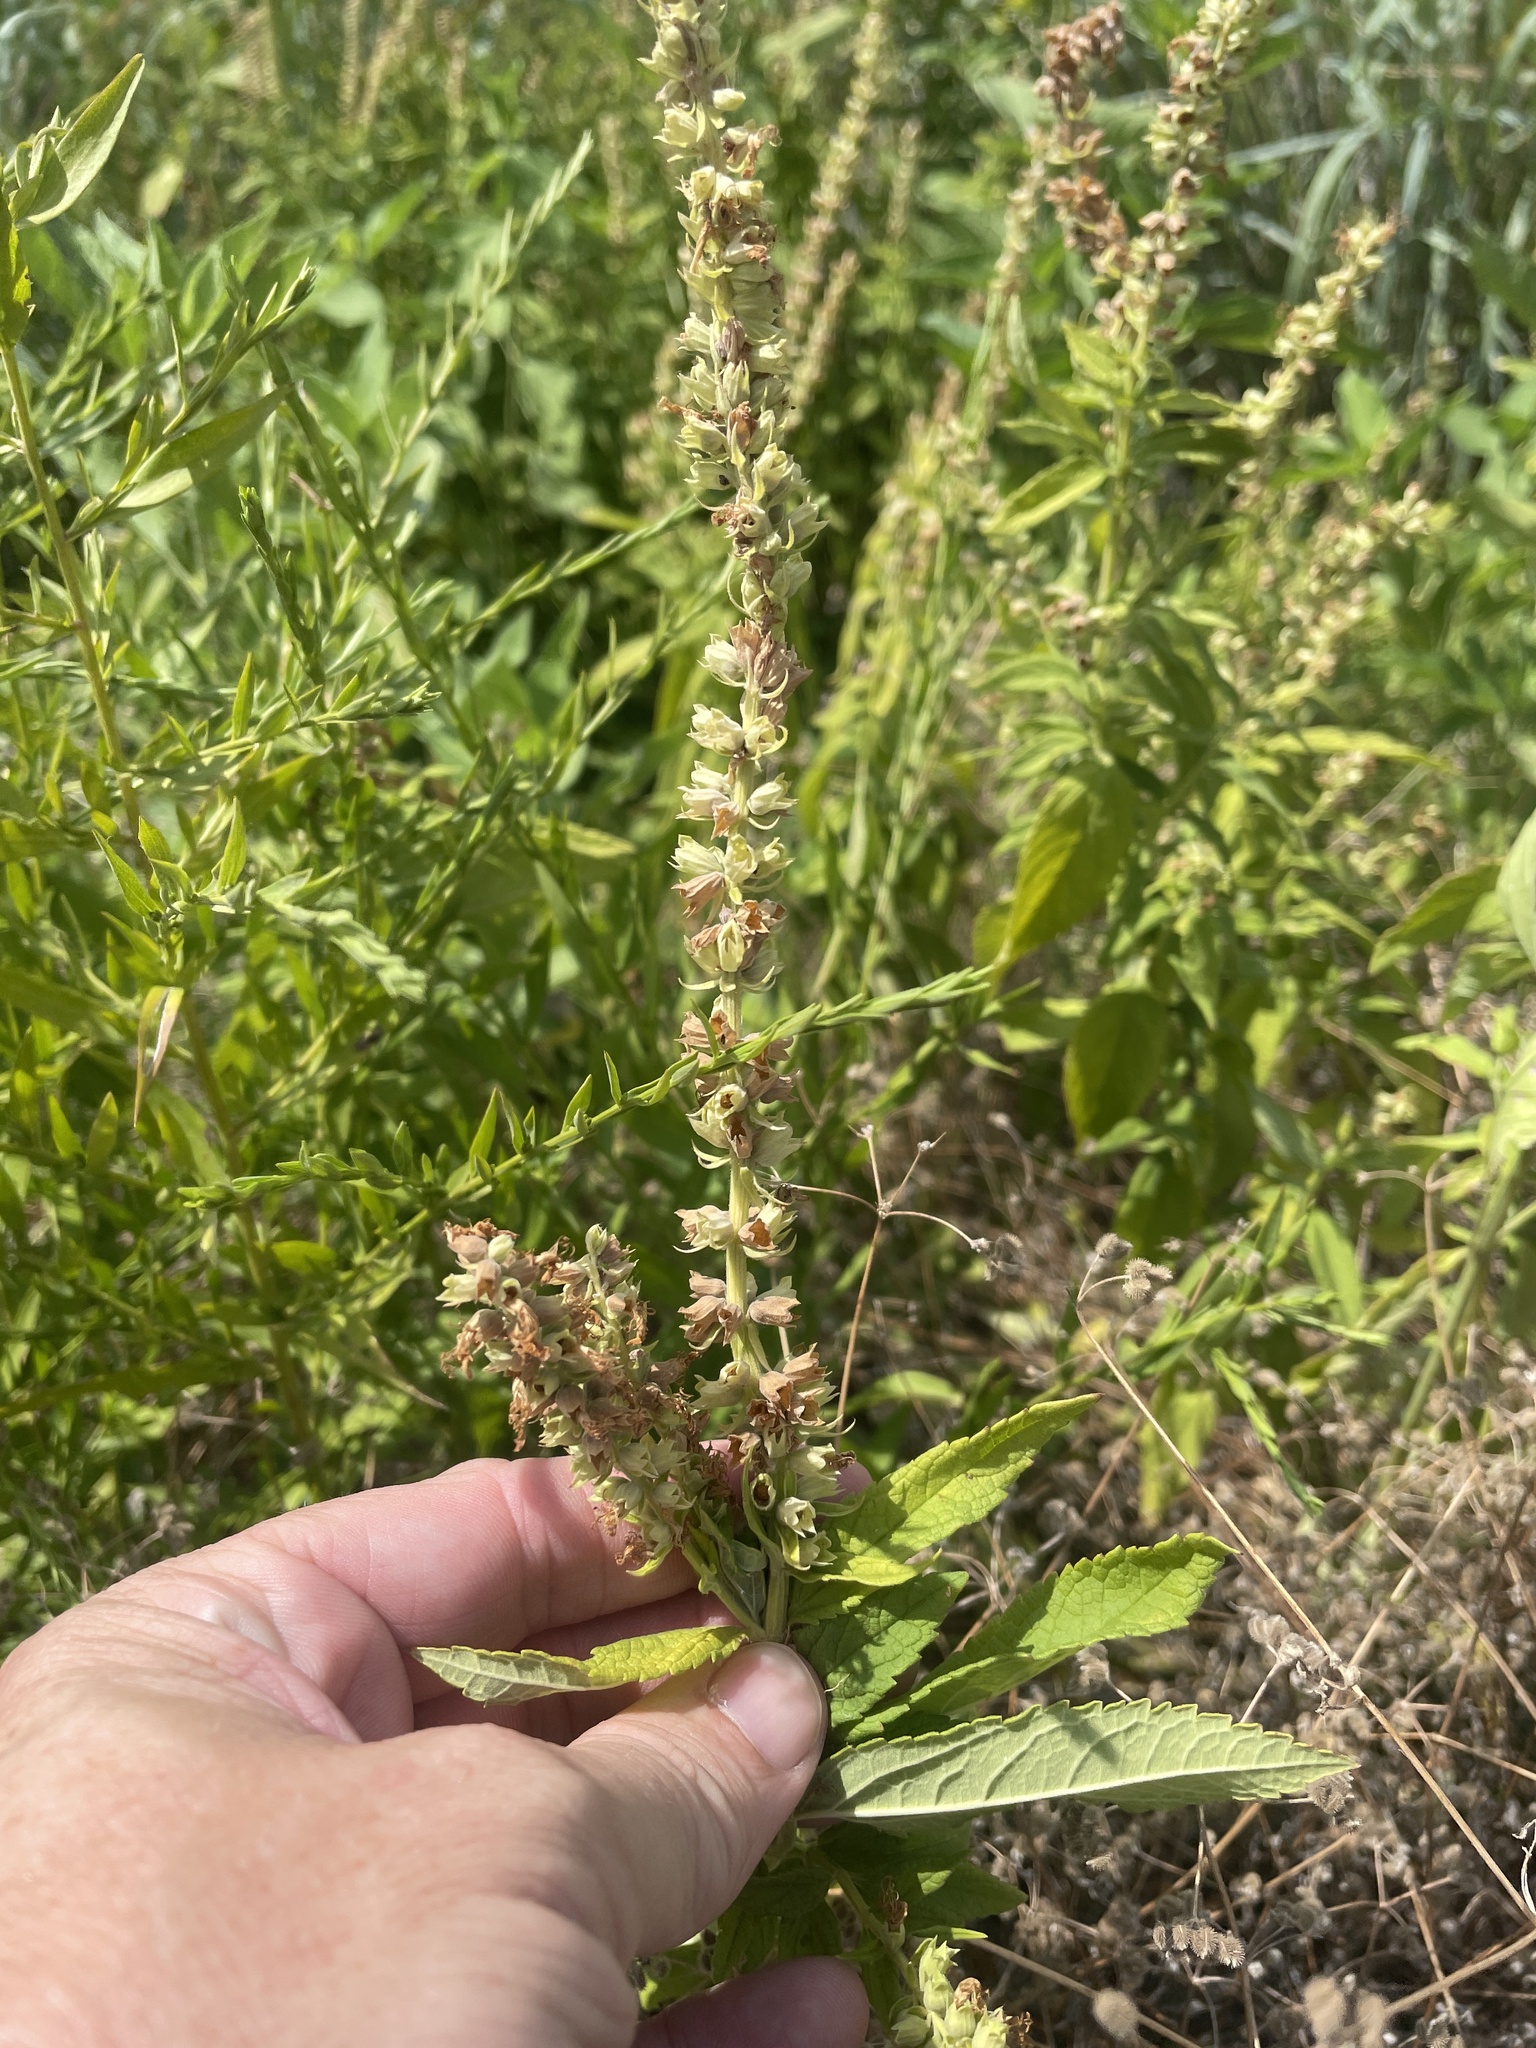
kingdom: Plantae
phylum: Tracheophyta
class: Magnoliopsida
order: Lamiales
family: Lamiaceae
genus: Teucrium
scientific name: Teucrium canadense
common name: American germander
